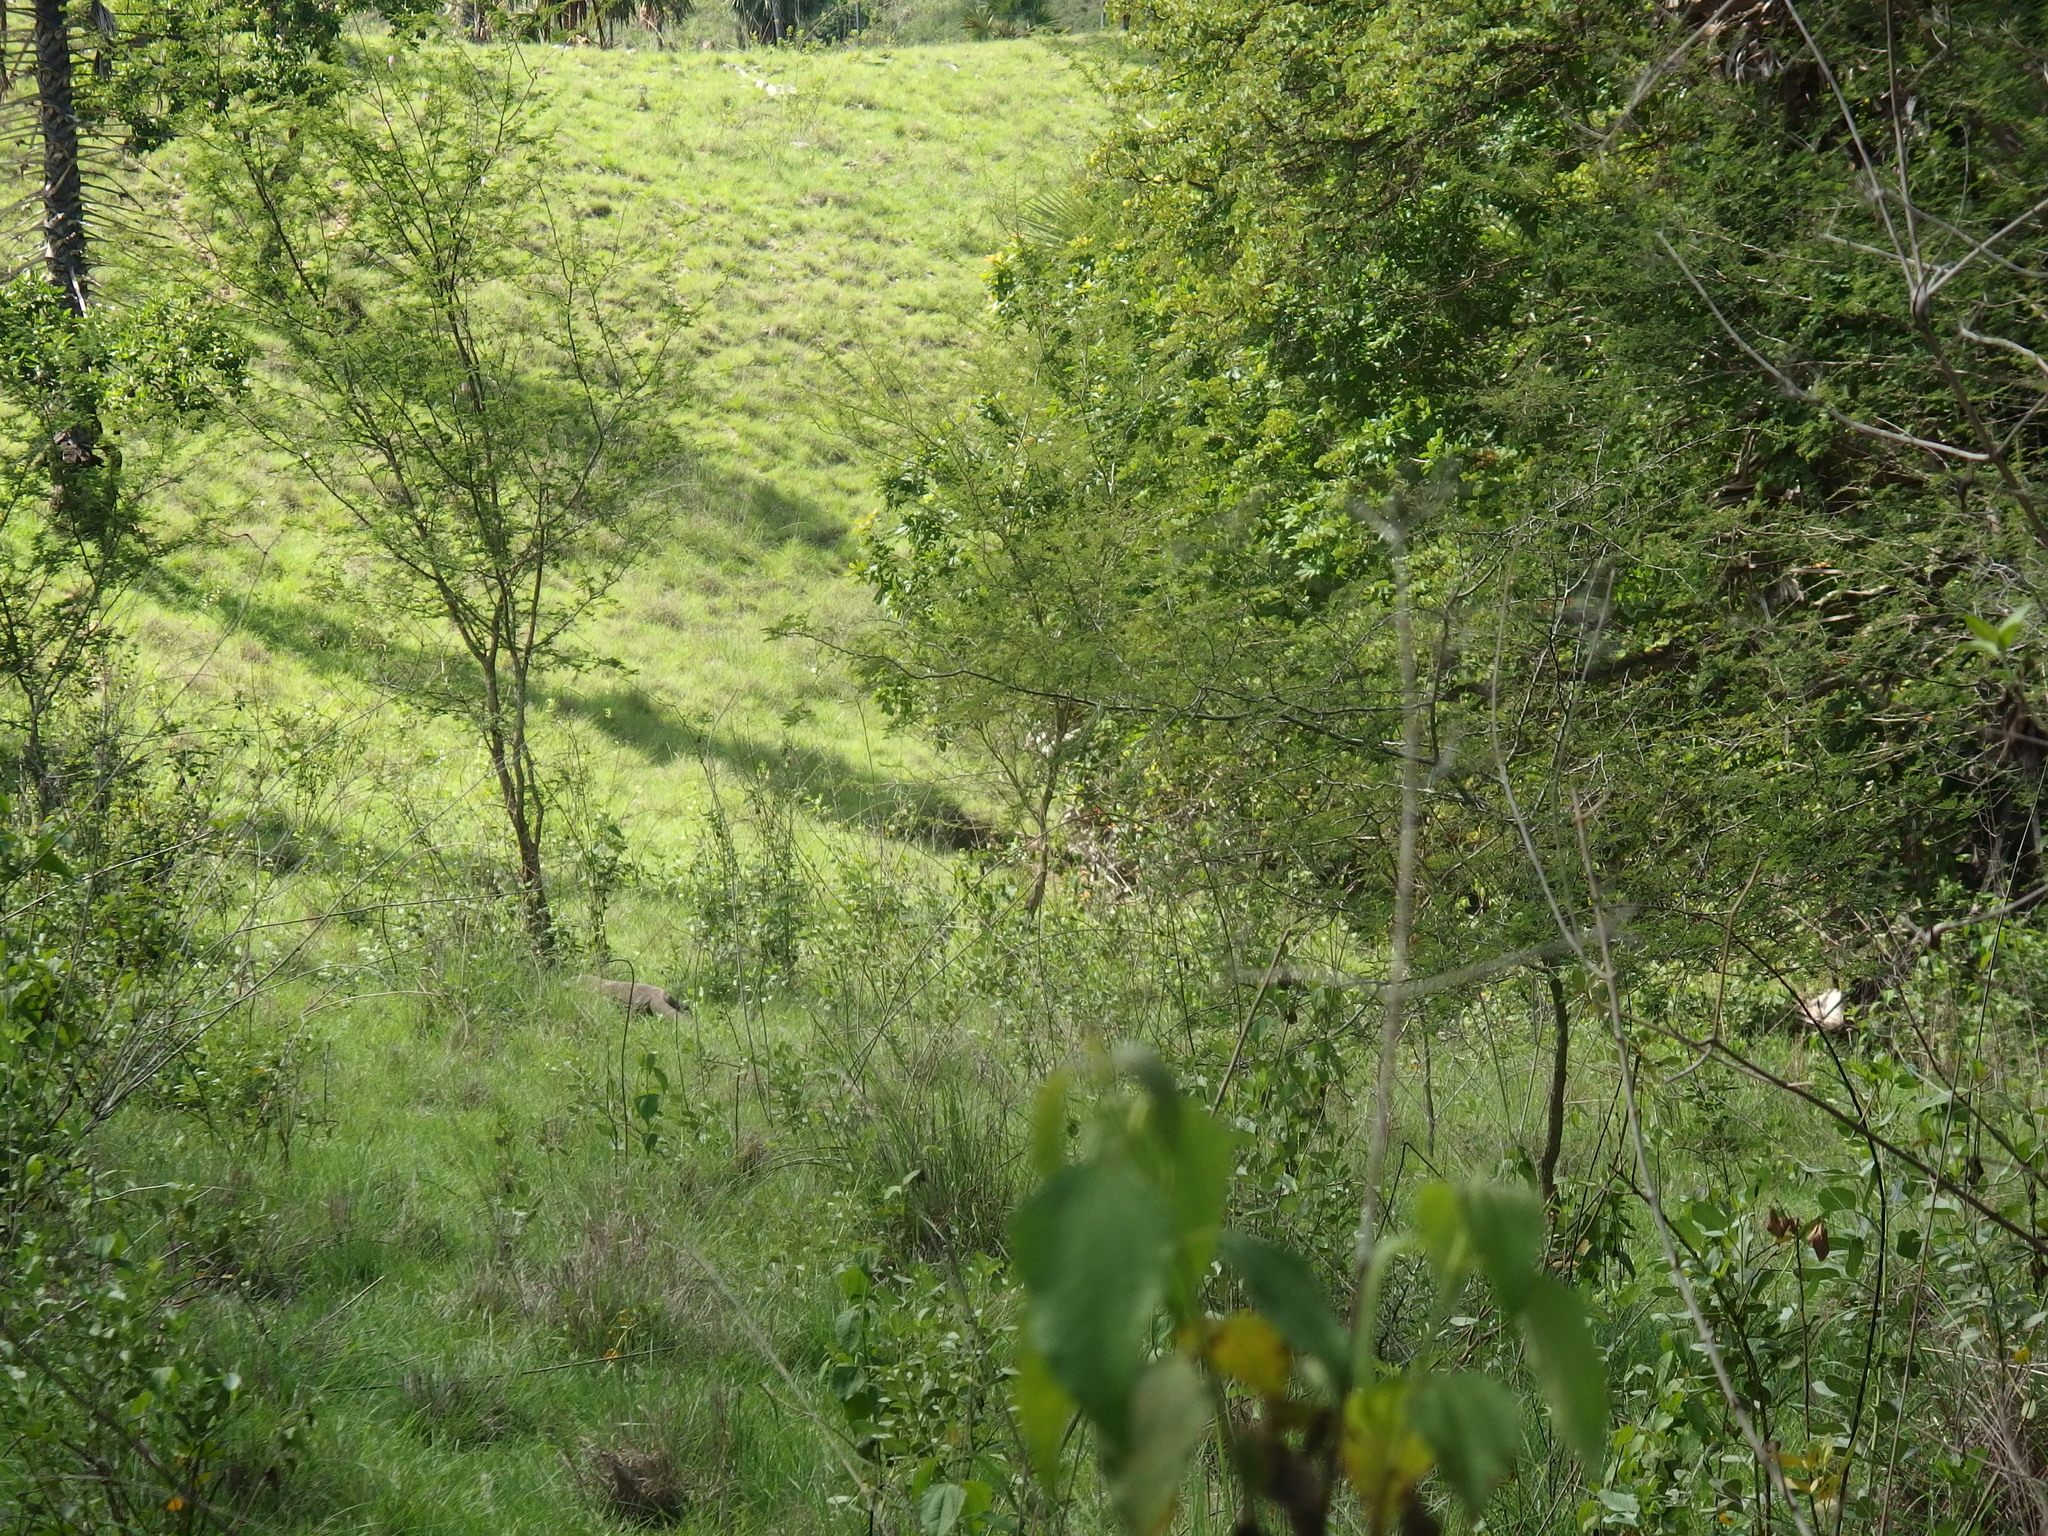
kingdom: Animalia
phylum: Chordata
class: Squamata
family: Varanidae
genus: Varanus
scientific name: Varanus komodoensis
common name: Komodo dragon
